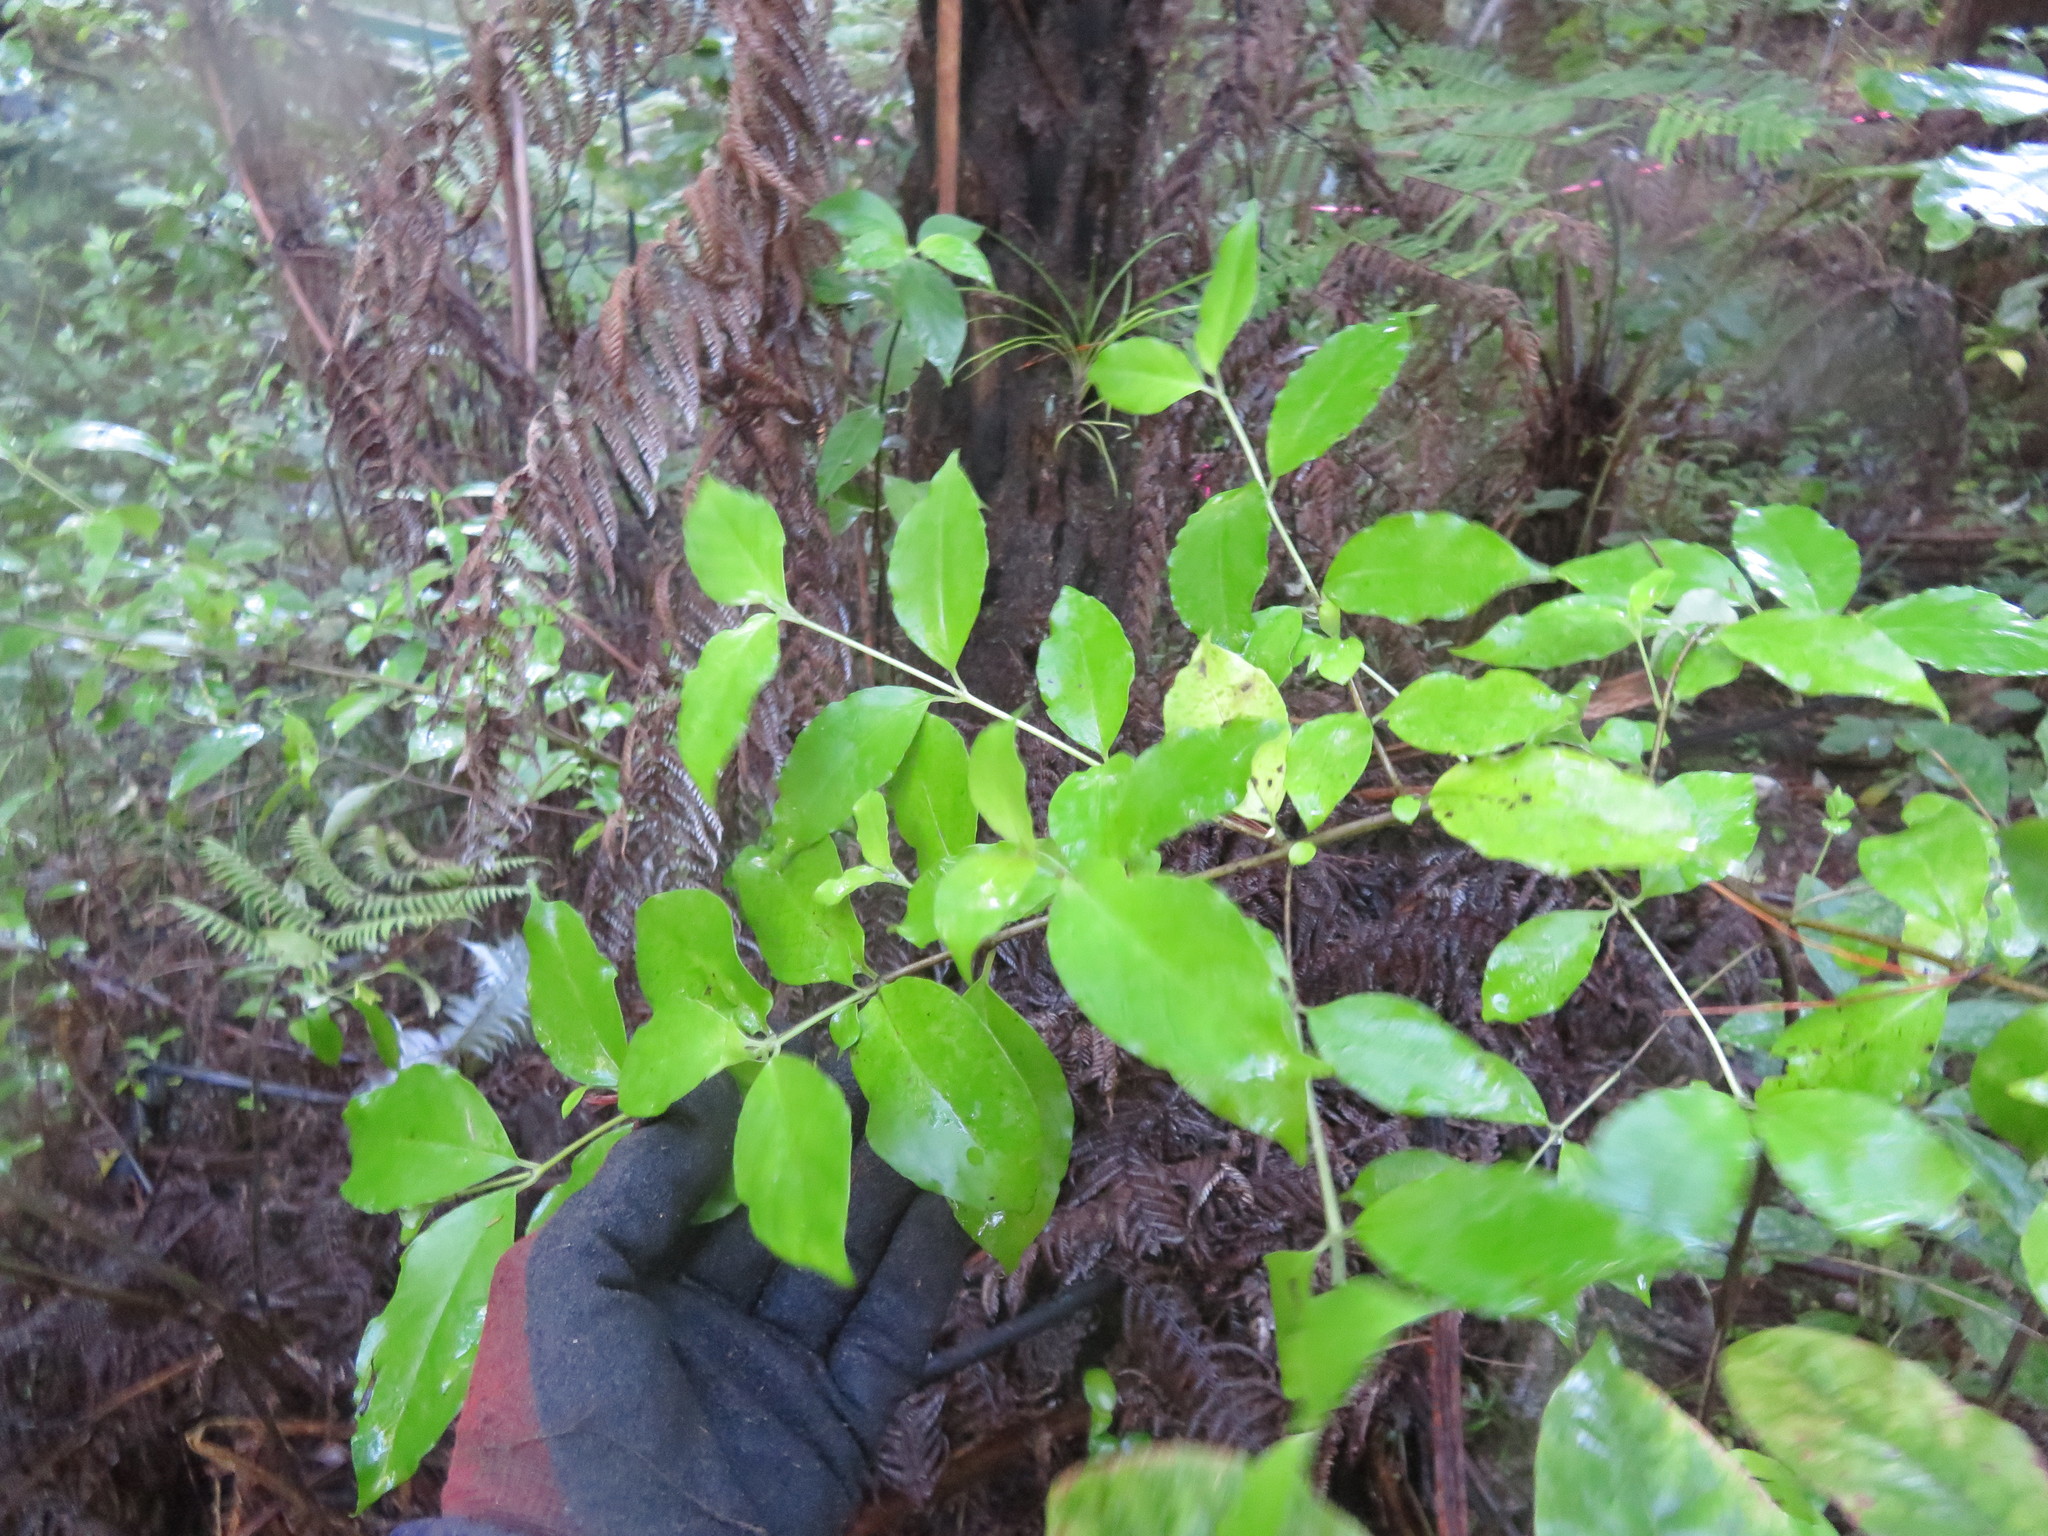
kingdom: Plantae
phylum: Tracheophyta
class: Magnoliopsida
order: Gentianales
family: Loganiaceae
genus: Geniostoma
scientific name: Geniostoma ligustrifolium
